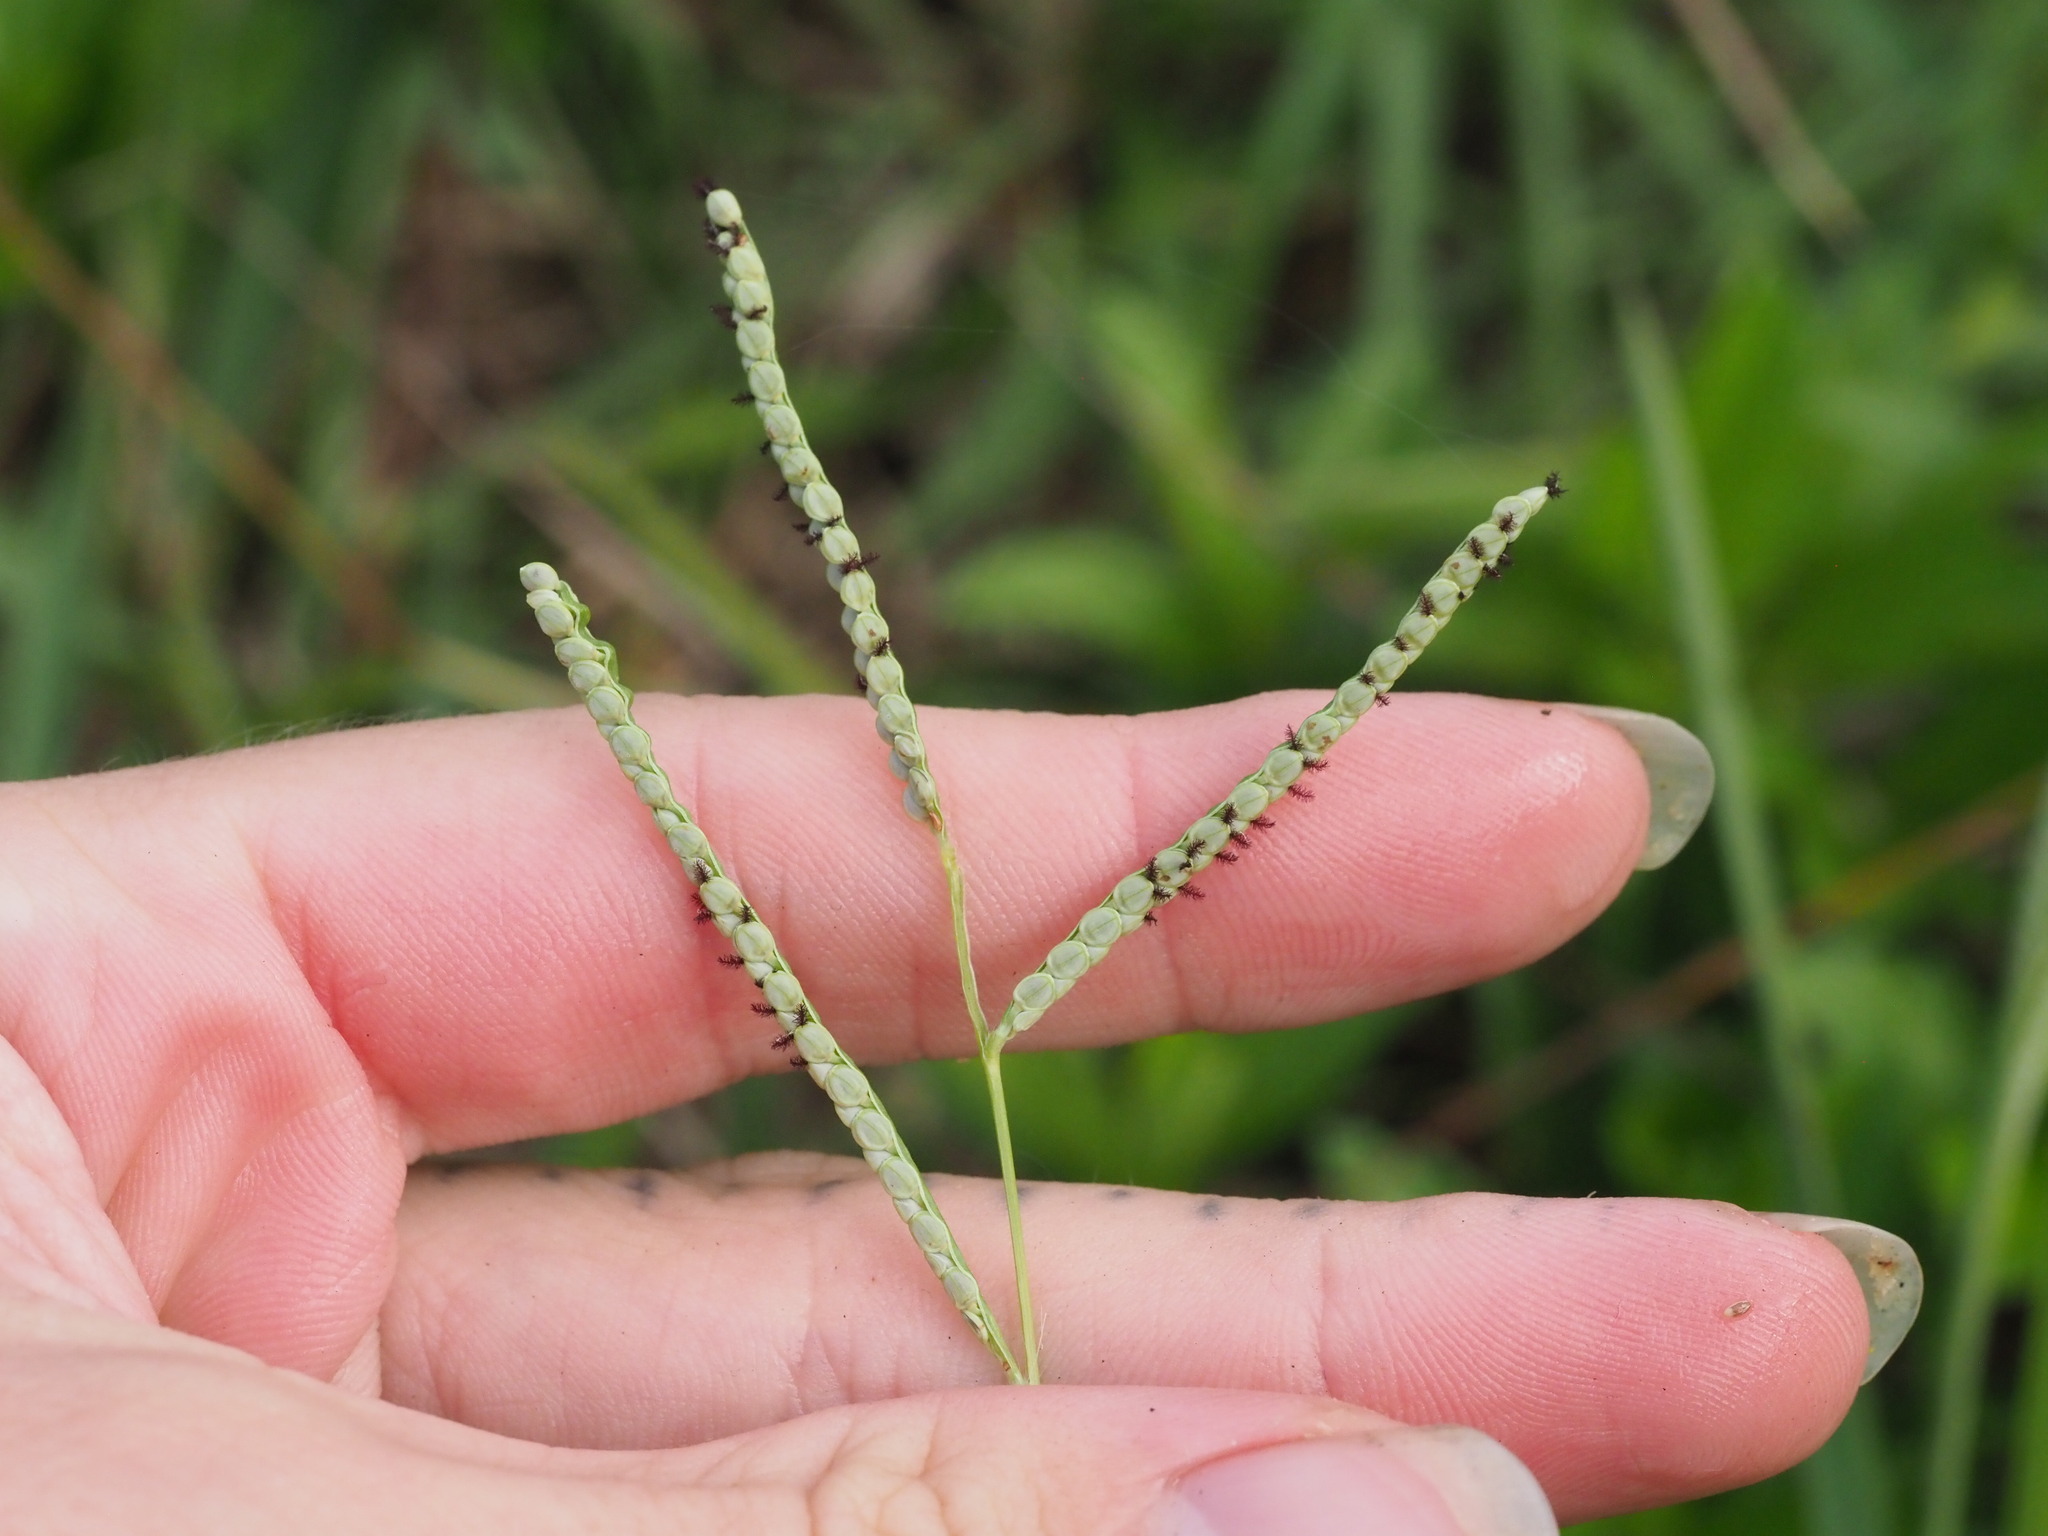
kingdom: Plantae
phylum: Tracheophyta
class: Liliopsida
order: Poales
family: Poaceae
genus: Paspalum
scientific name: Paspalum scrobiculatum
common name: Kodo millet
